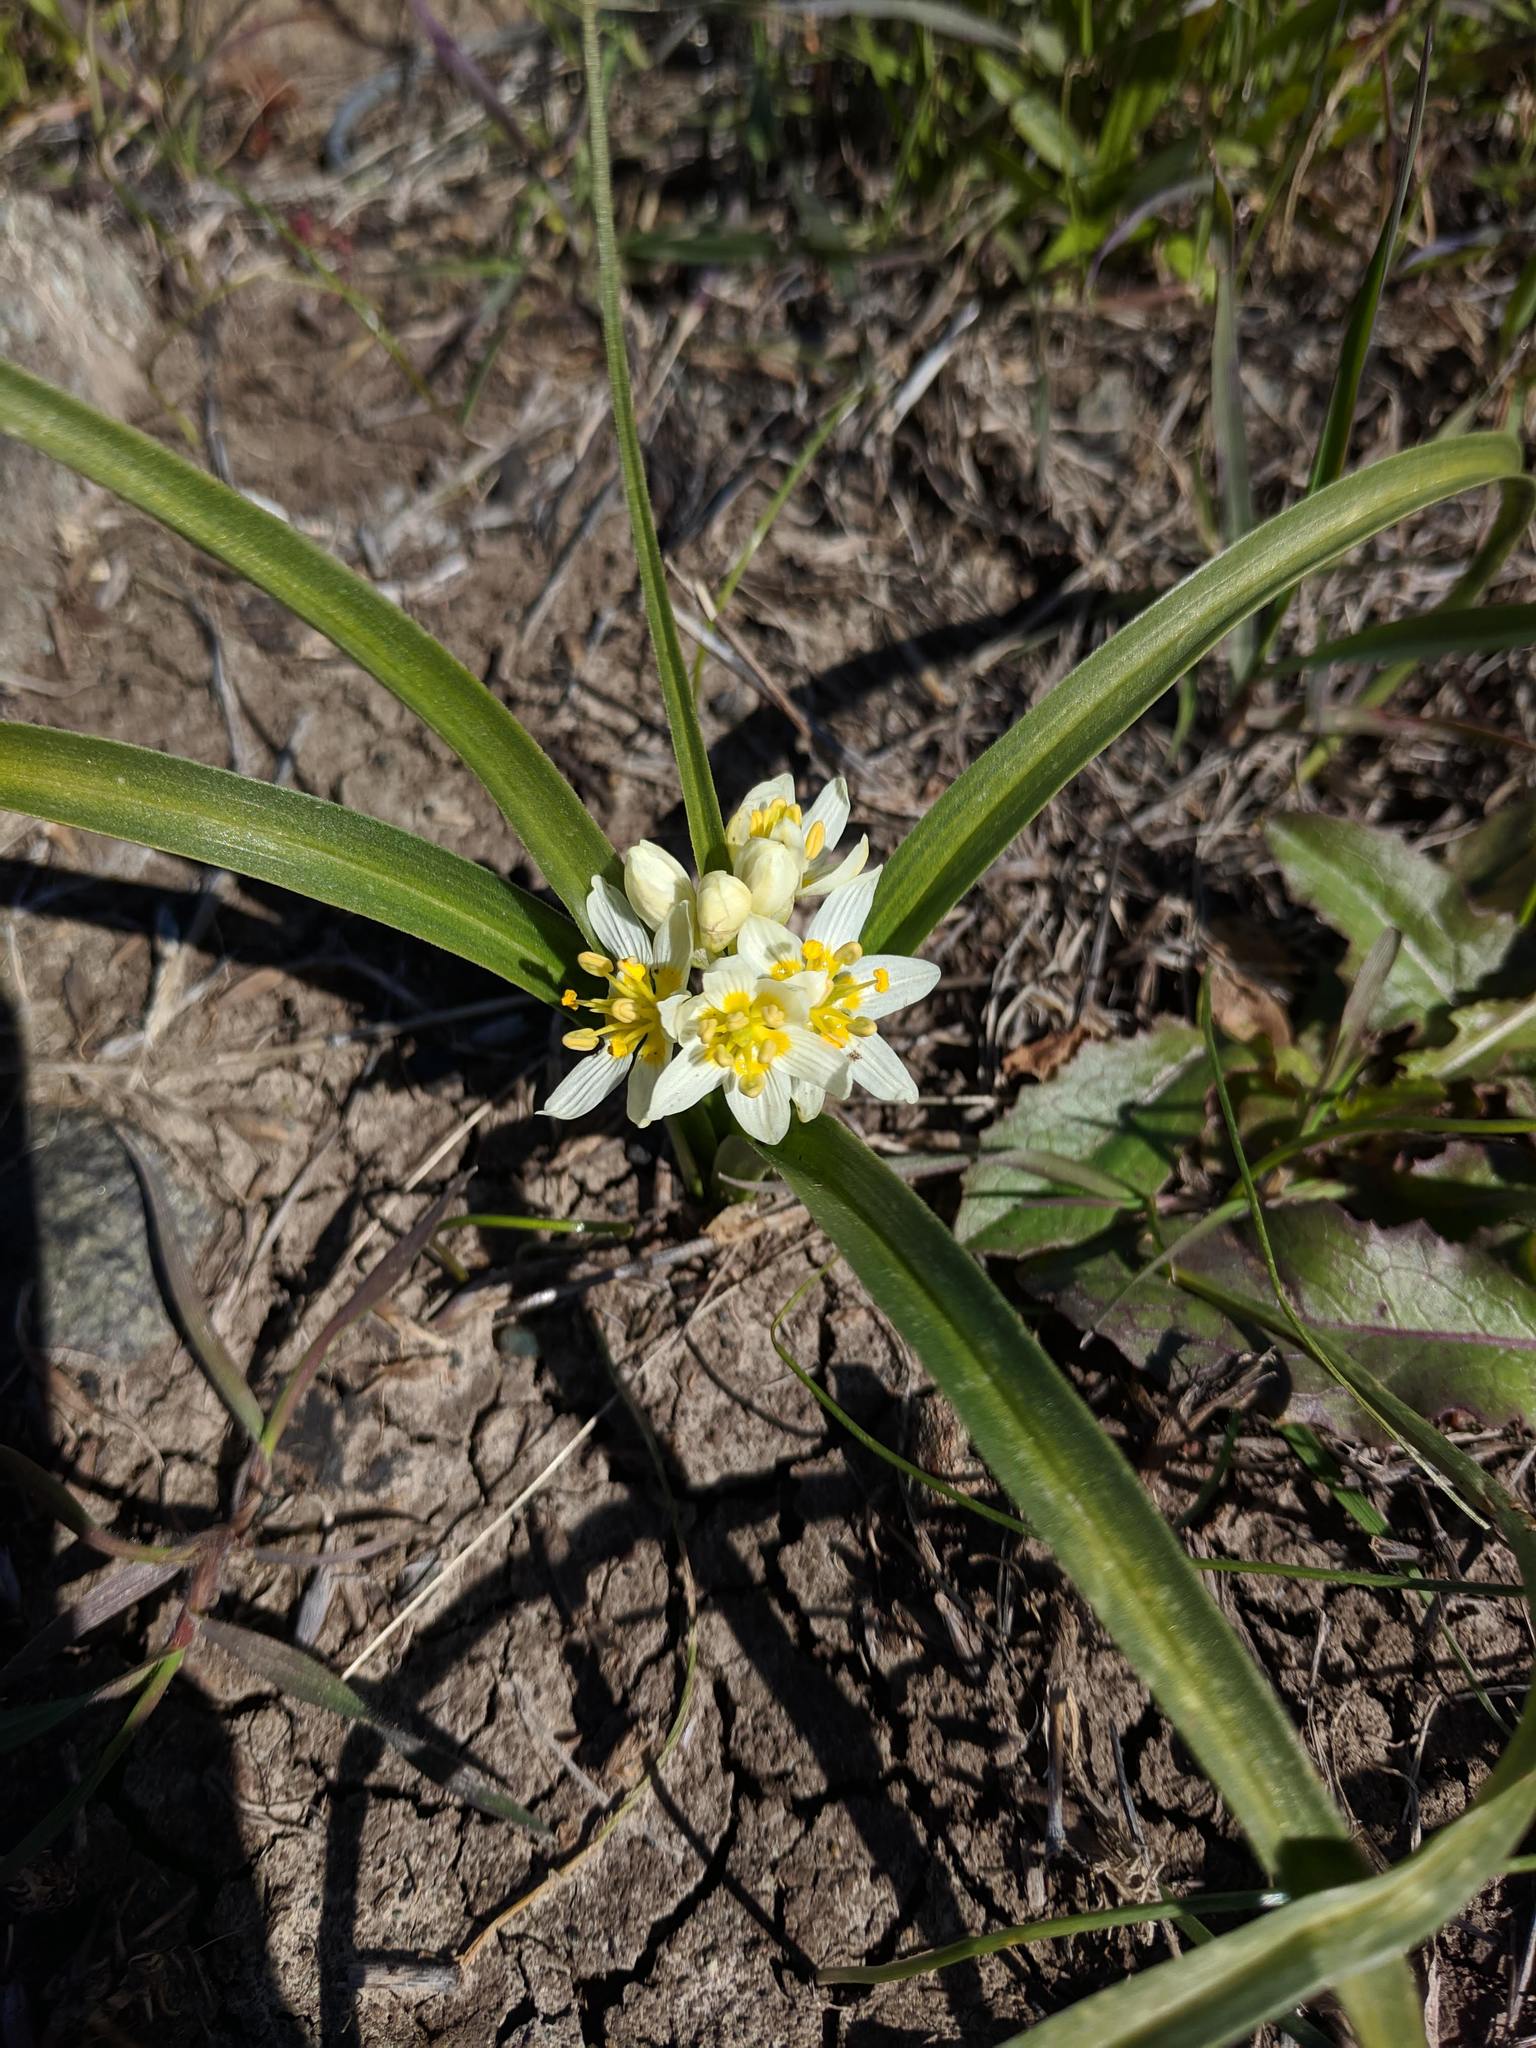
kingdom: Plantae
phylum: Tracheophyta
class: Liliopsida
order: Liliales
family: Melanthiaceae
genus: Toxicoscordion
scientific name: Toxicoscordion fremontii
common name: Fremont's death camas
